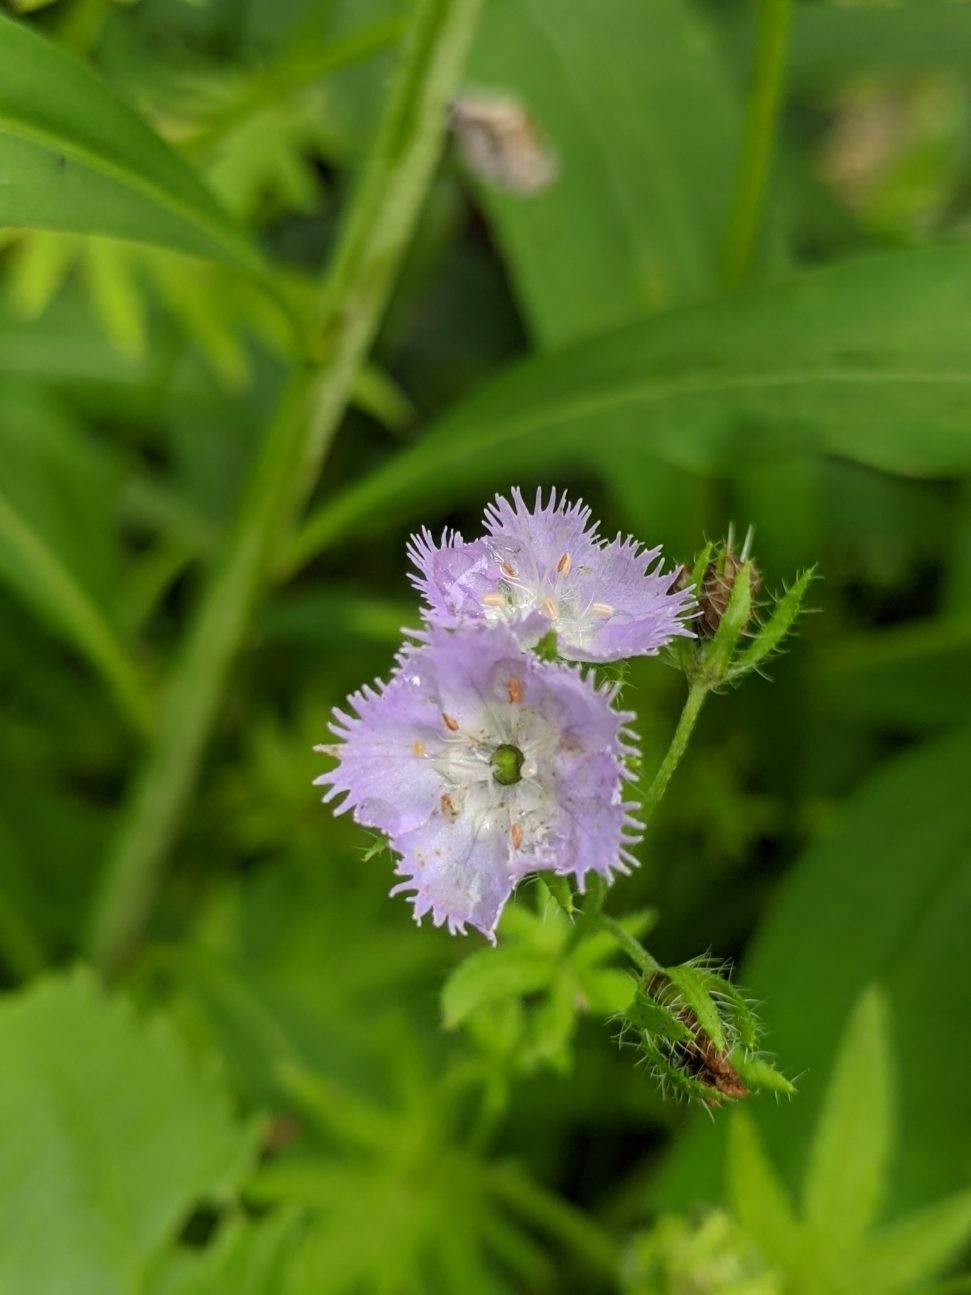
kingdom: Plantae
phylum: Tracheophyta
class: Magnoliopsida
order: Boraginales
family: Hydrophyllaceae
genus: Phacelia
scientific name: Phacelia purshii
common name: Miami-mist
